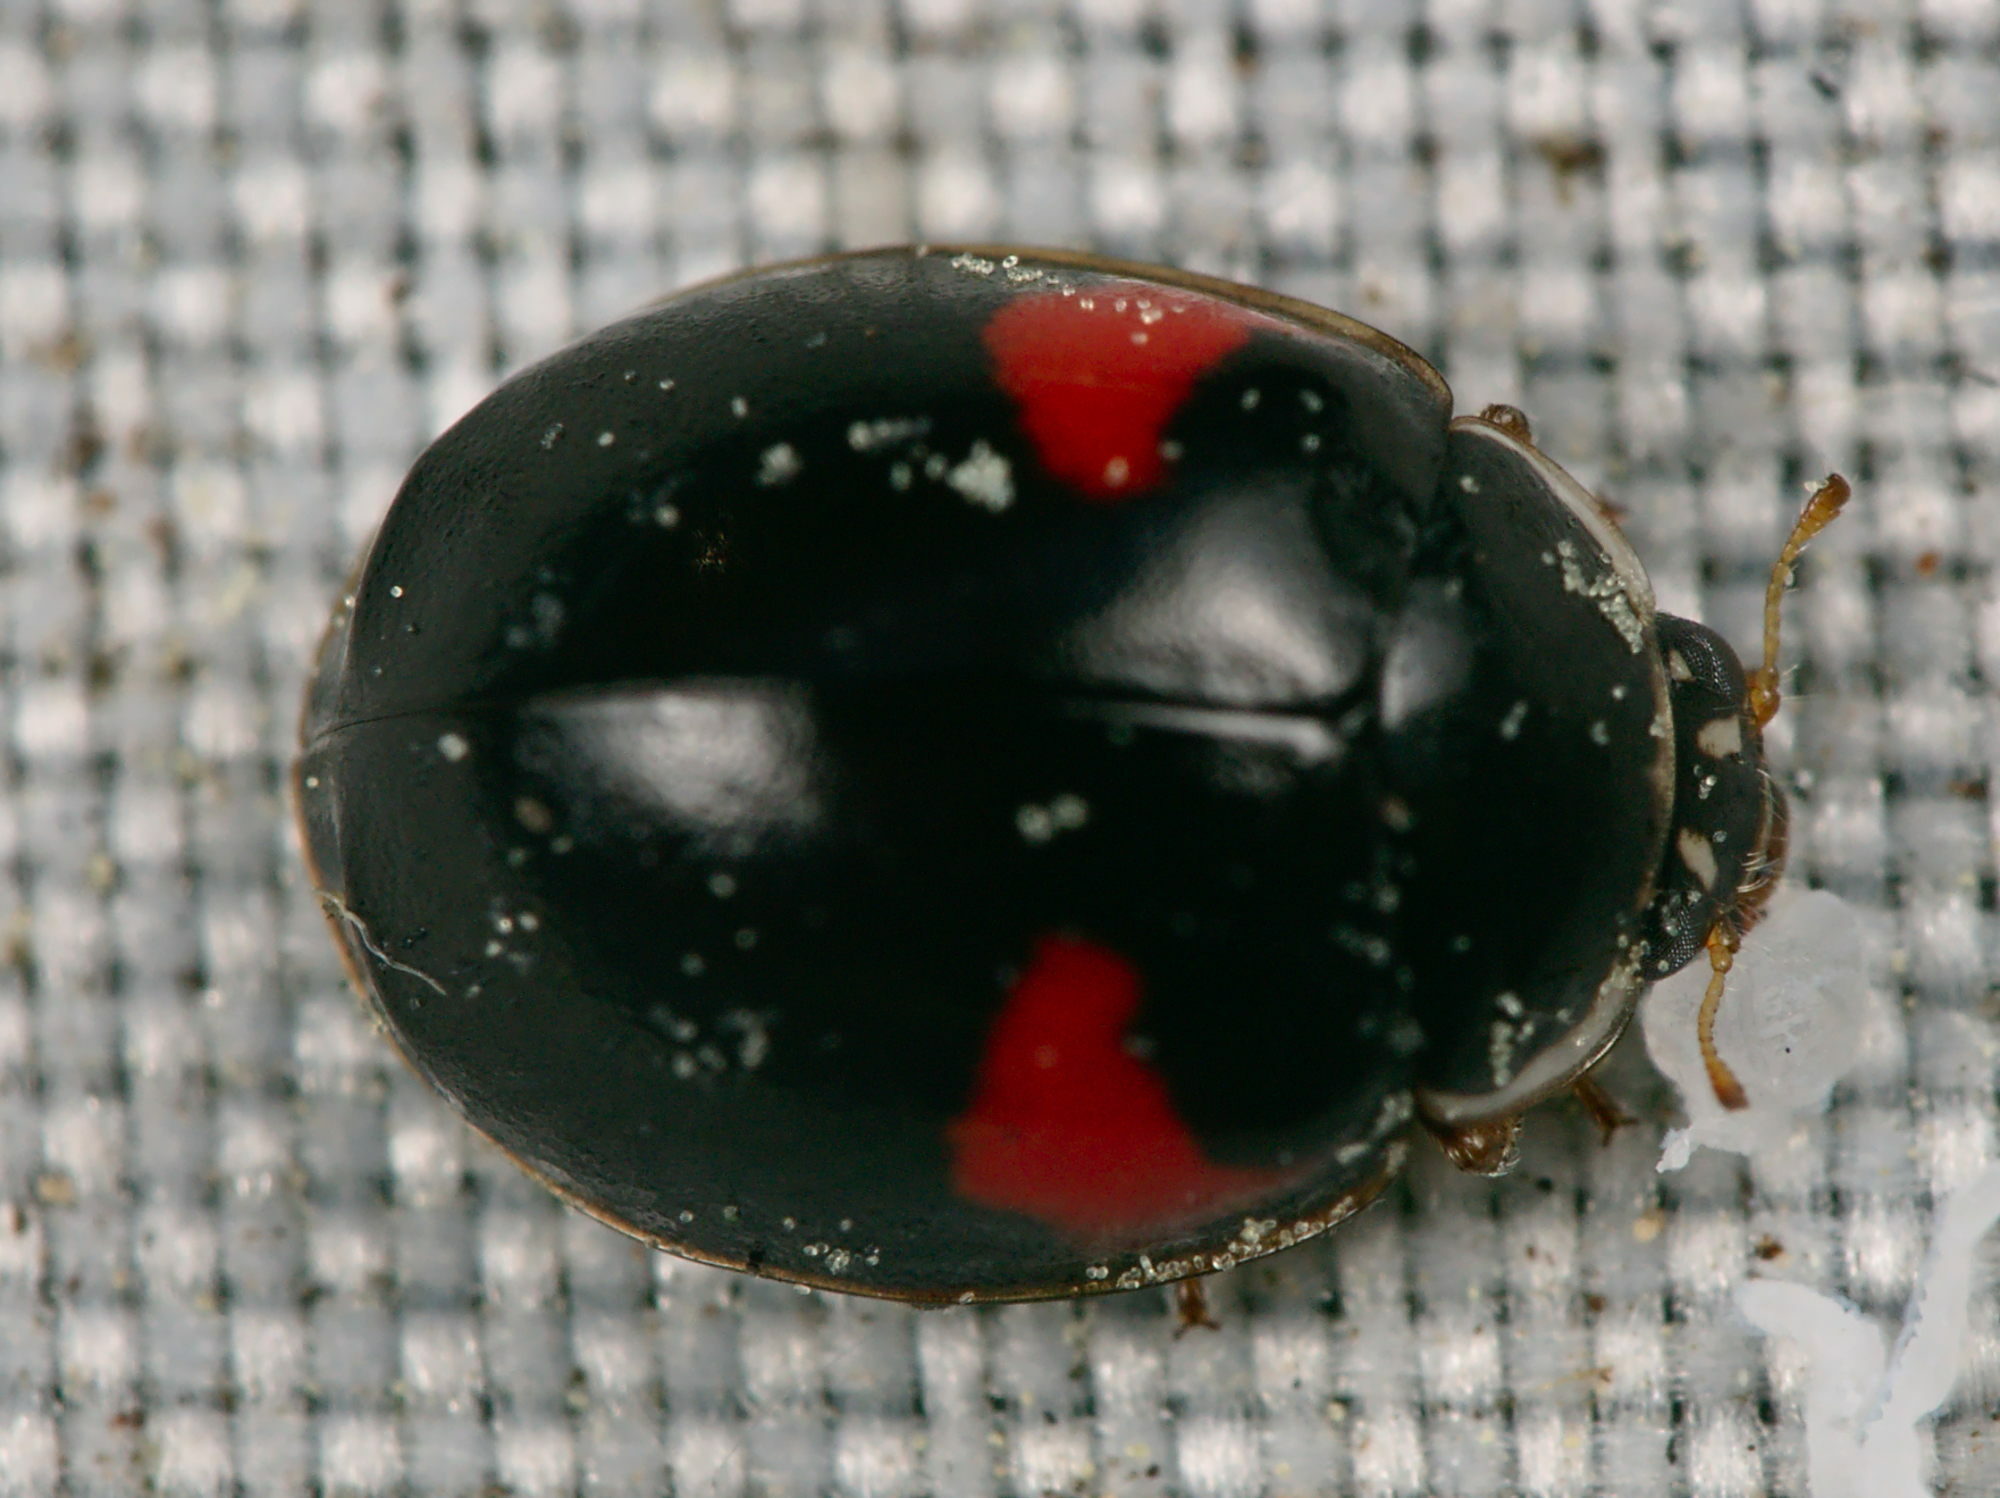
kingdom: Animalia
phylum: Arthropoda
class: Insecta
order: Coleoptera
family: Coccinellidae
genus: Adalia
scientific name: Adalia decempunctata
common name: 10-spot ladybird
